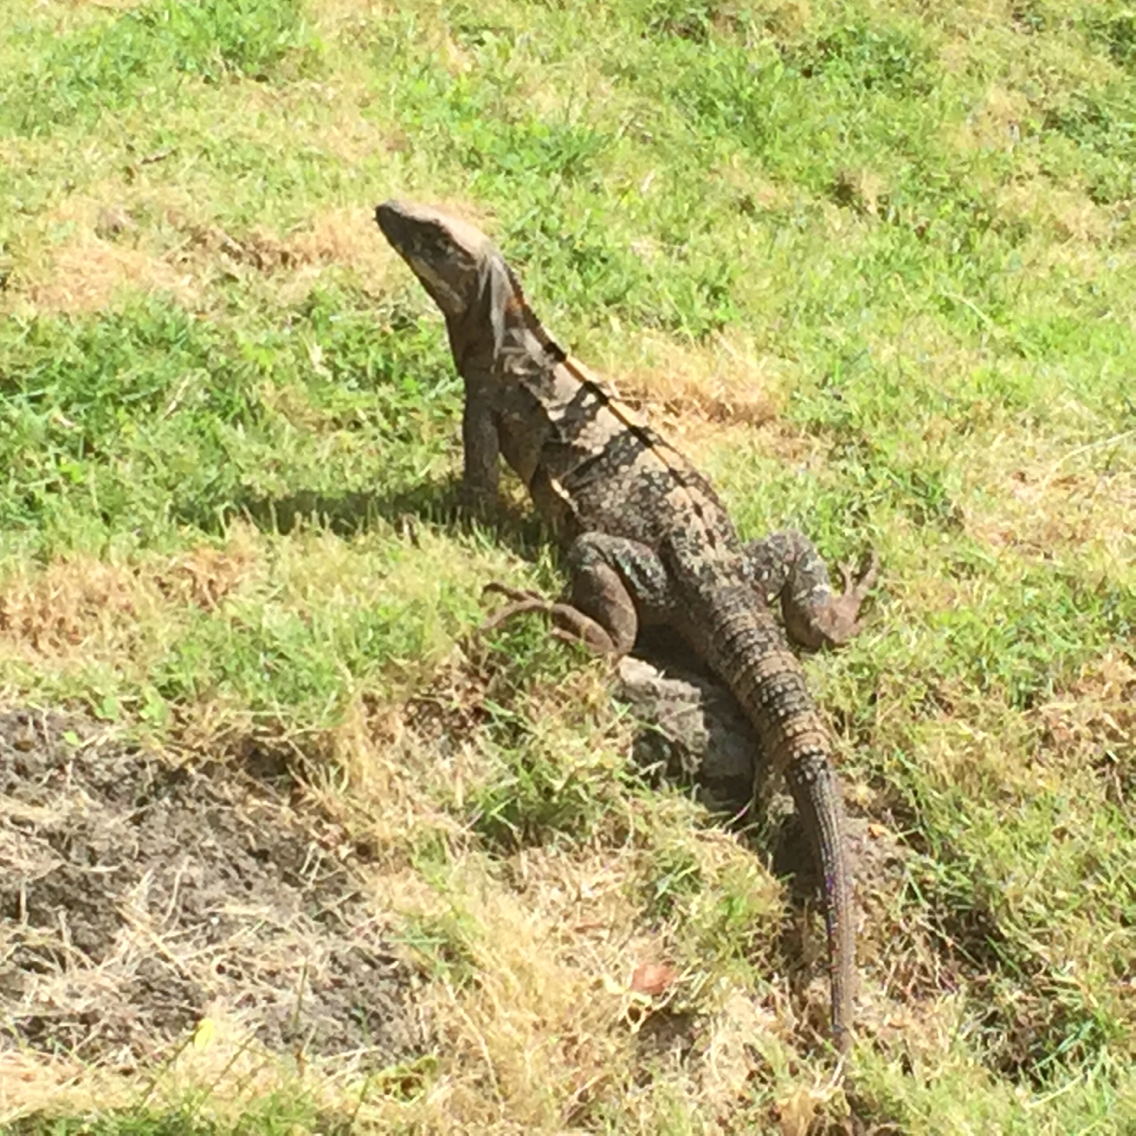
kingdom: Animalia
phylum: Chordata
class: Squamata
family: Iguanidae
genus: Ctenosaura
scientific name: Ctenosaura similis
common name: Black spiny-tailed iguana
